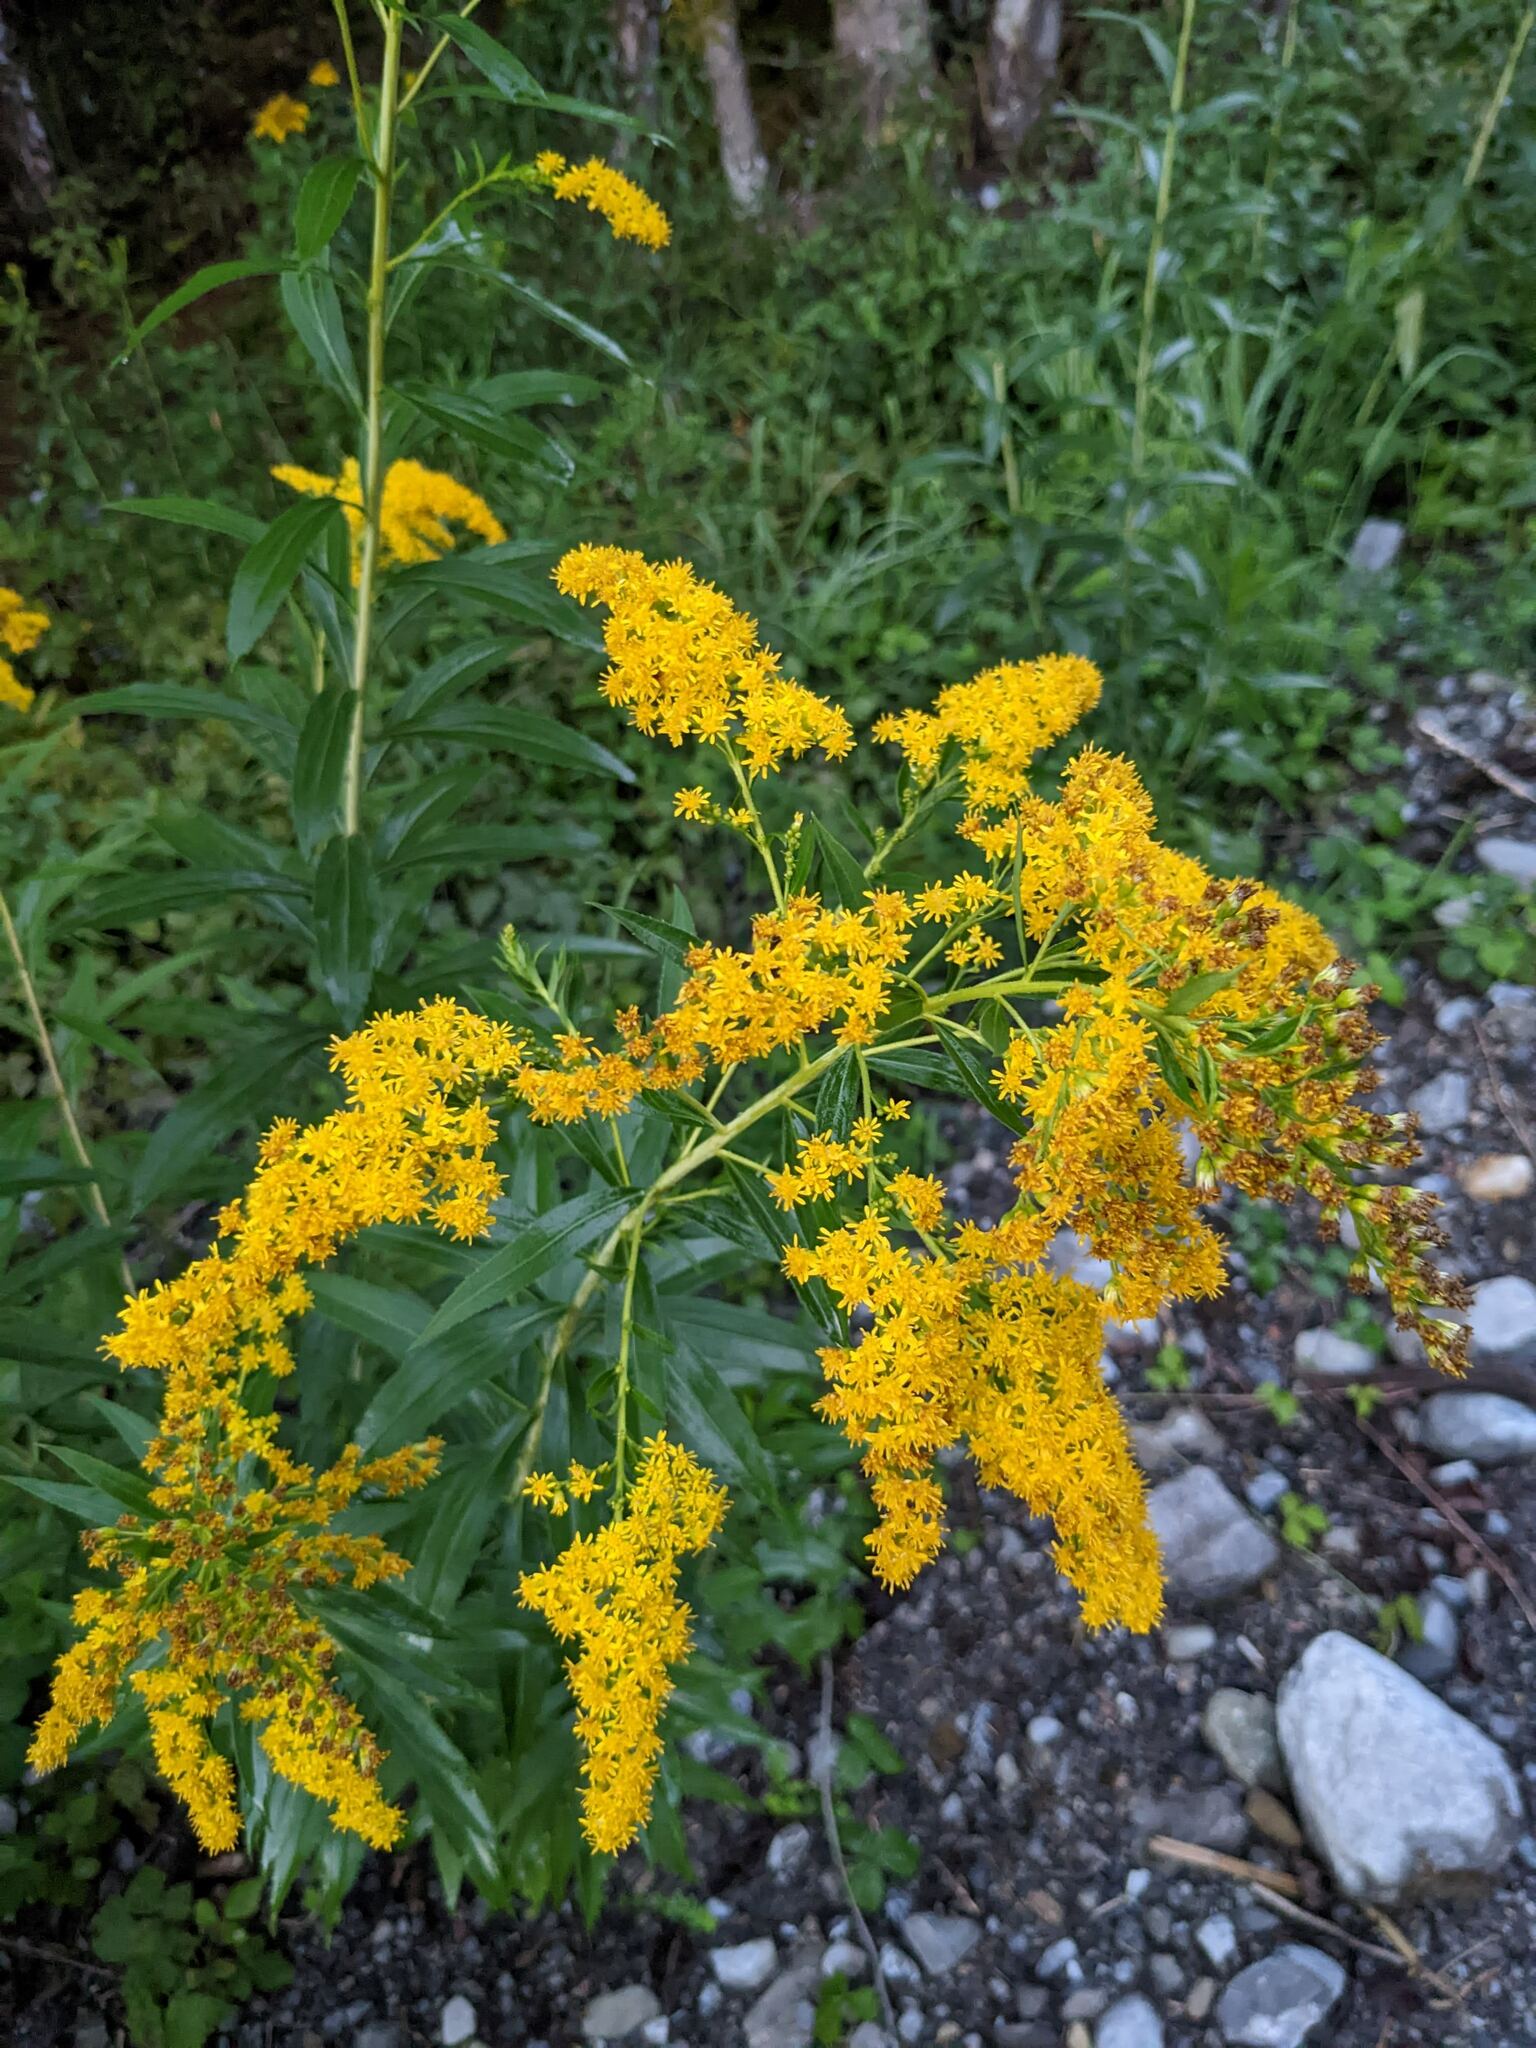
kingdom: Plantae
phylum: Tracheophyta
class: Magnoliopsida
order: Asterales
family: Asteraceae
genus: Solidago
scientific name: Solidago gigantea
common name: Giant goldenrod
